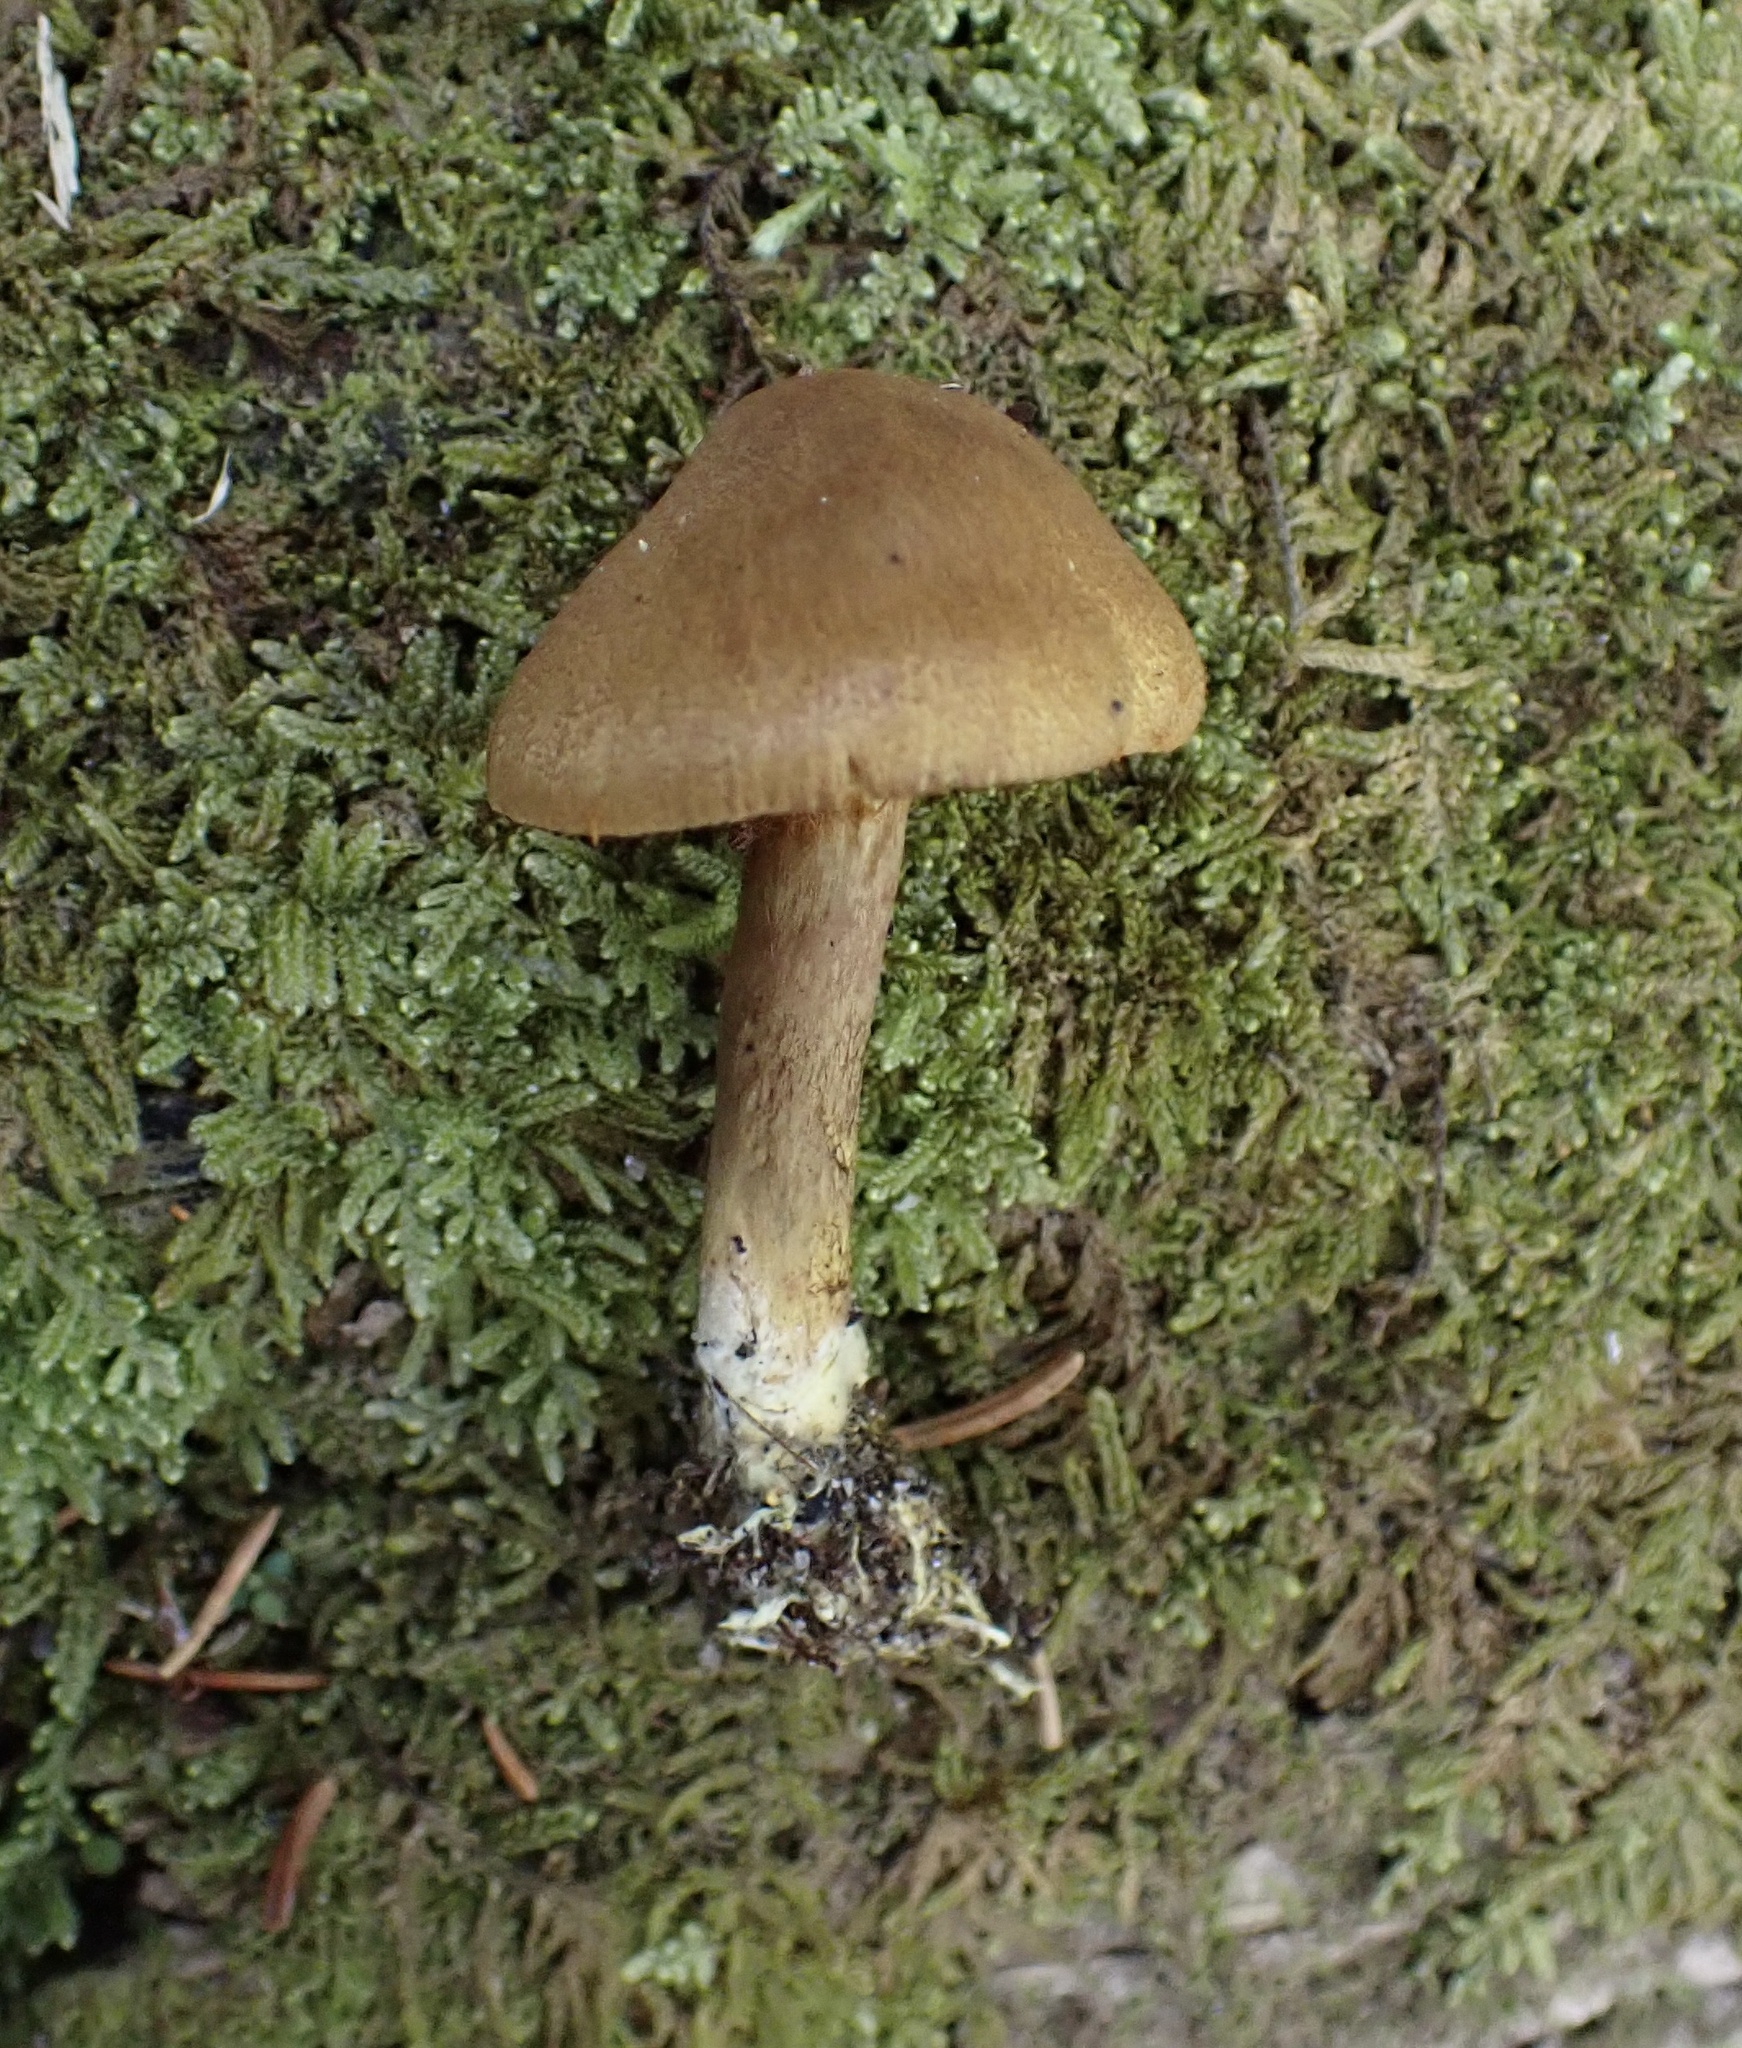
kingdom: Fungi
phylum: Basidiomycota
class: Agaricomycetes
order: Agaricales
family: Cortinariaceae
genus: Cortinarius
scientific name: Cortinarius chrysolitus
